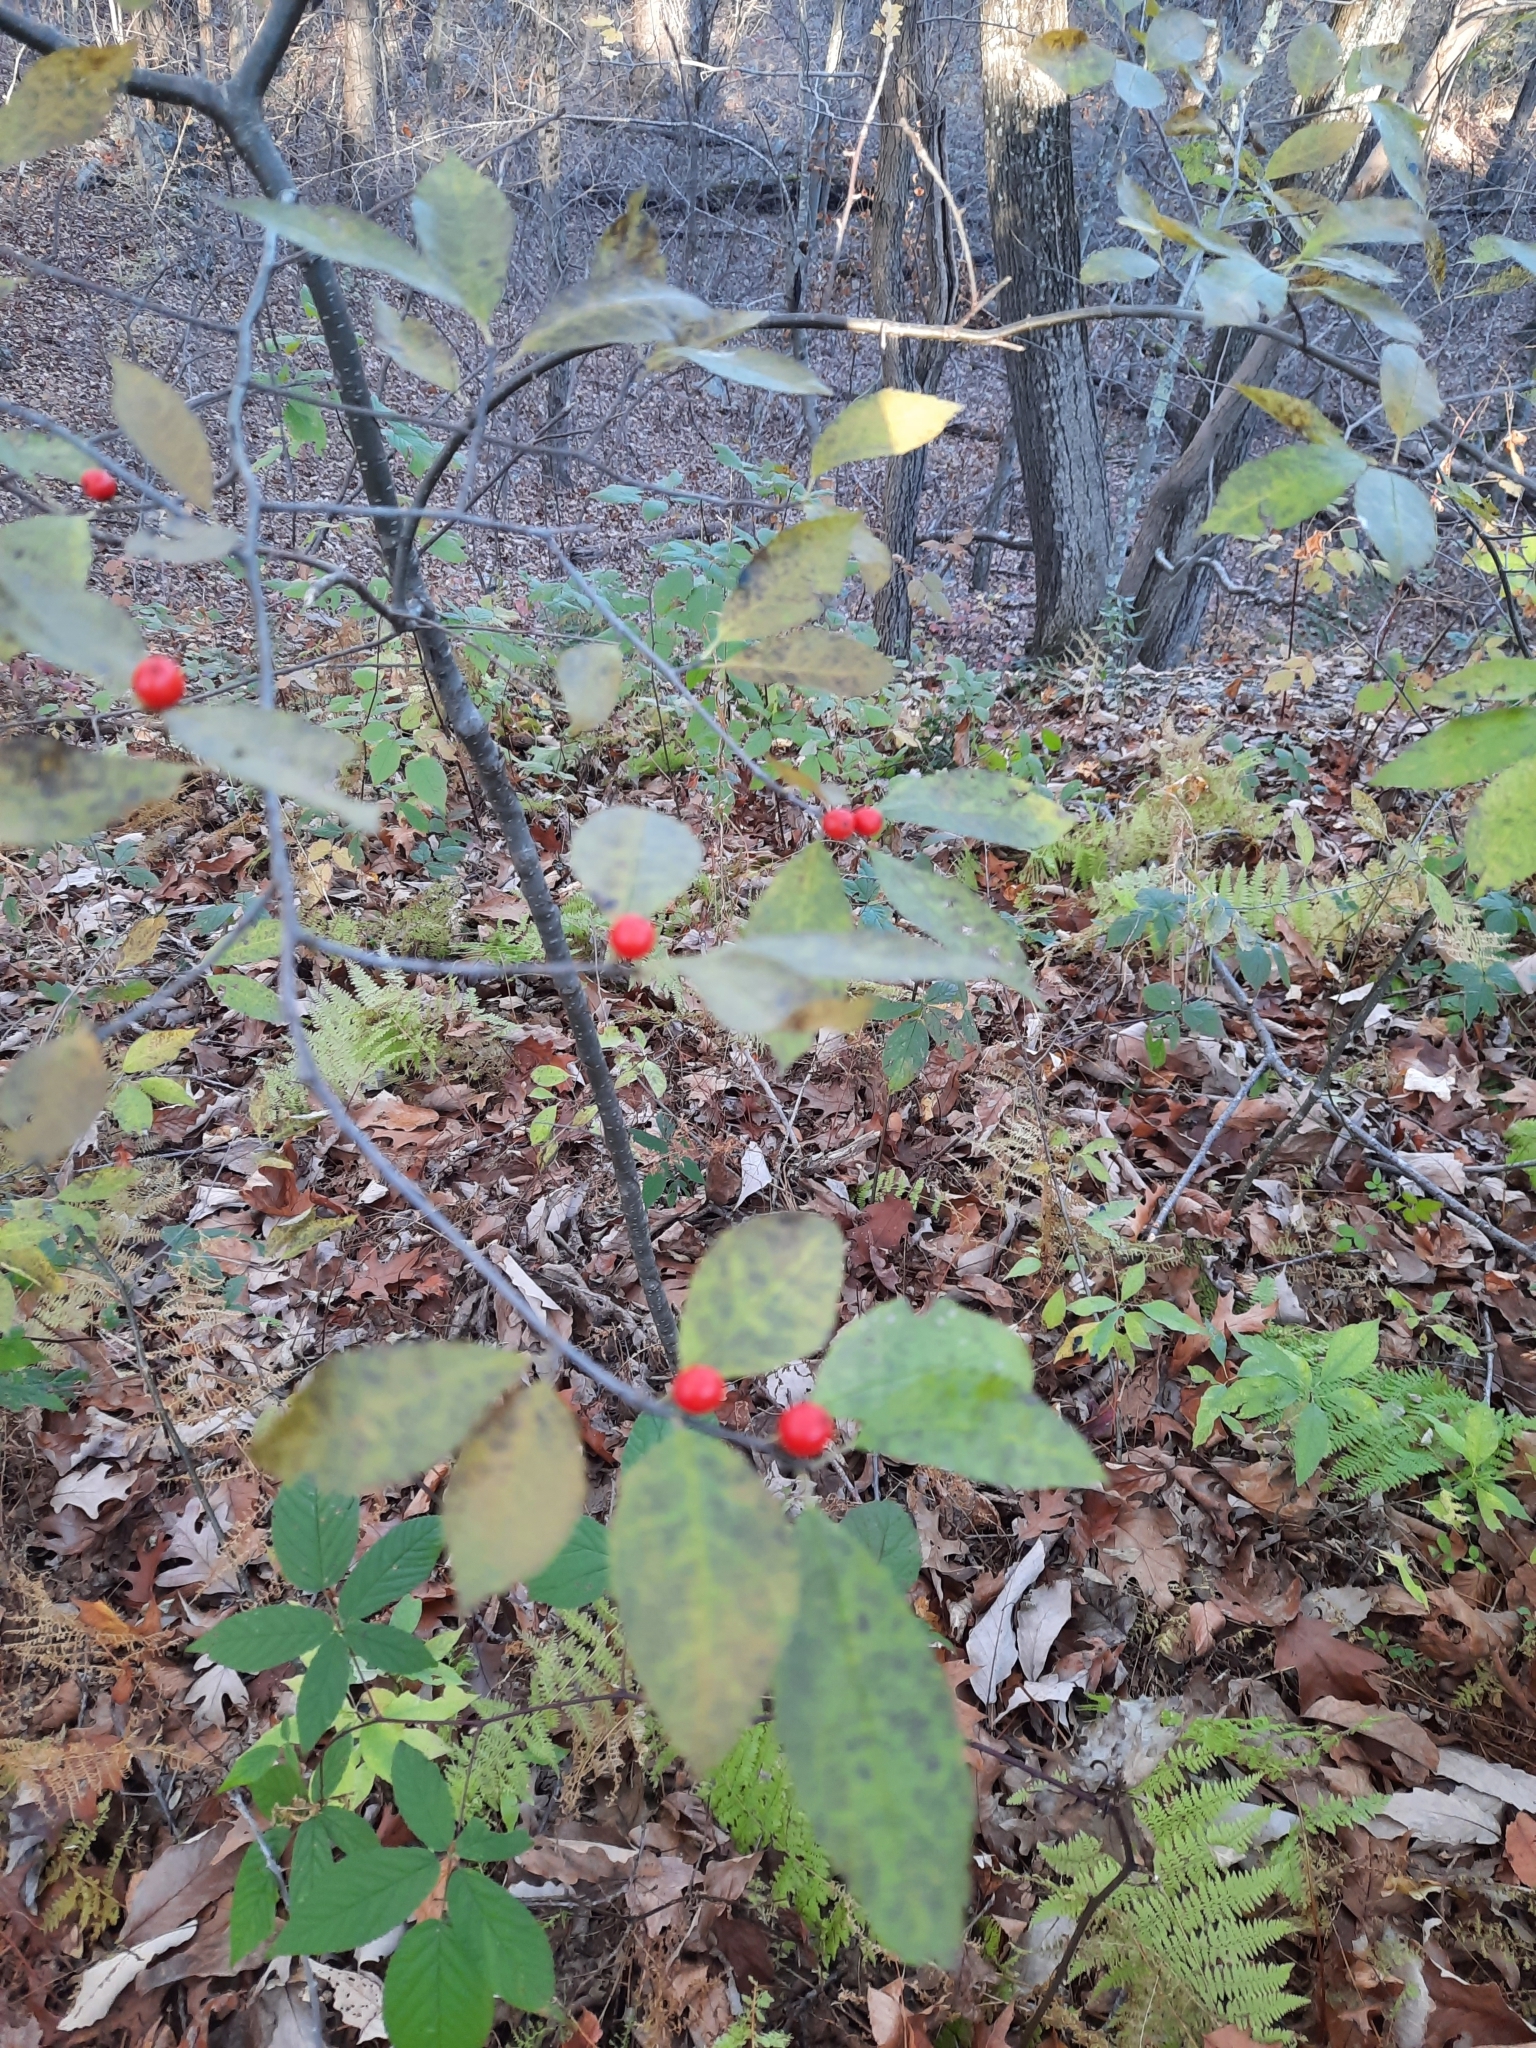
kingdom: Plantae
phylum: Tracheophyta
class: Magnoliopsida
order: Aquifoliales
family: Aquifoliaceae
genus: Ilex
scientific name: Ilex verticillata
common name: Virginia winterberry
